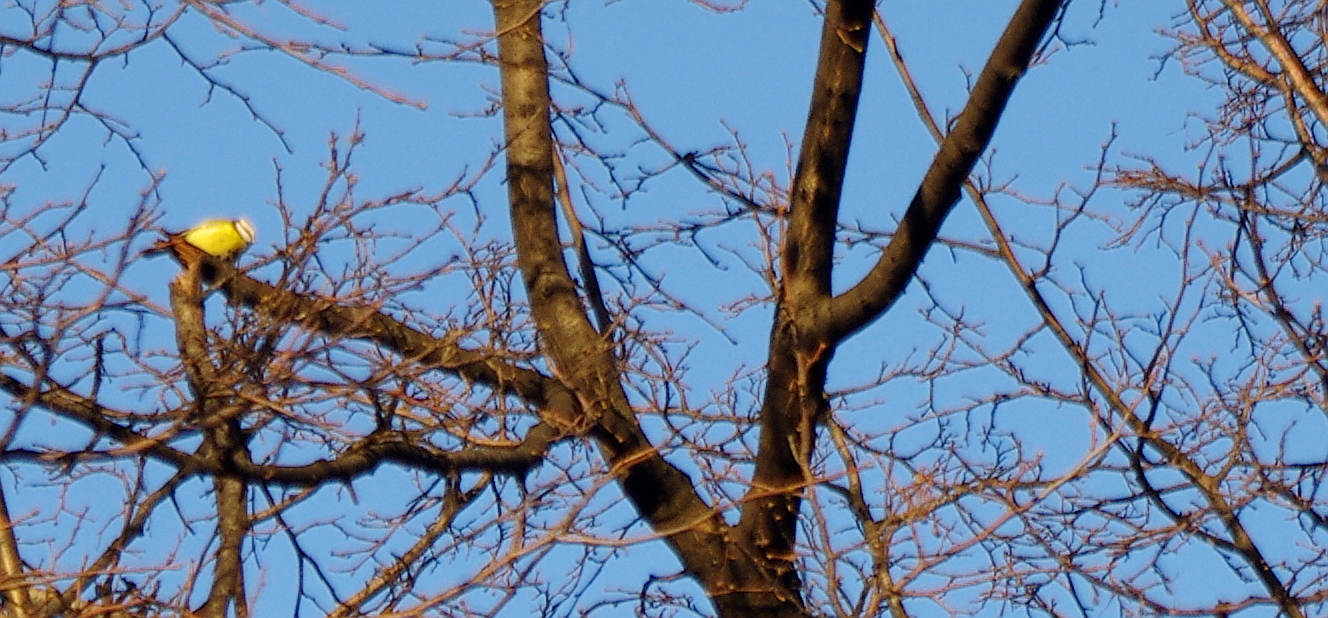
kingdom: Animalia
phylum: Chordata
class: Aves
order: Passeriformes
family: Paridae
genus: Cyanistes
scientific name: Cyanistes caeruleus
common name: Eurasian blue tit
